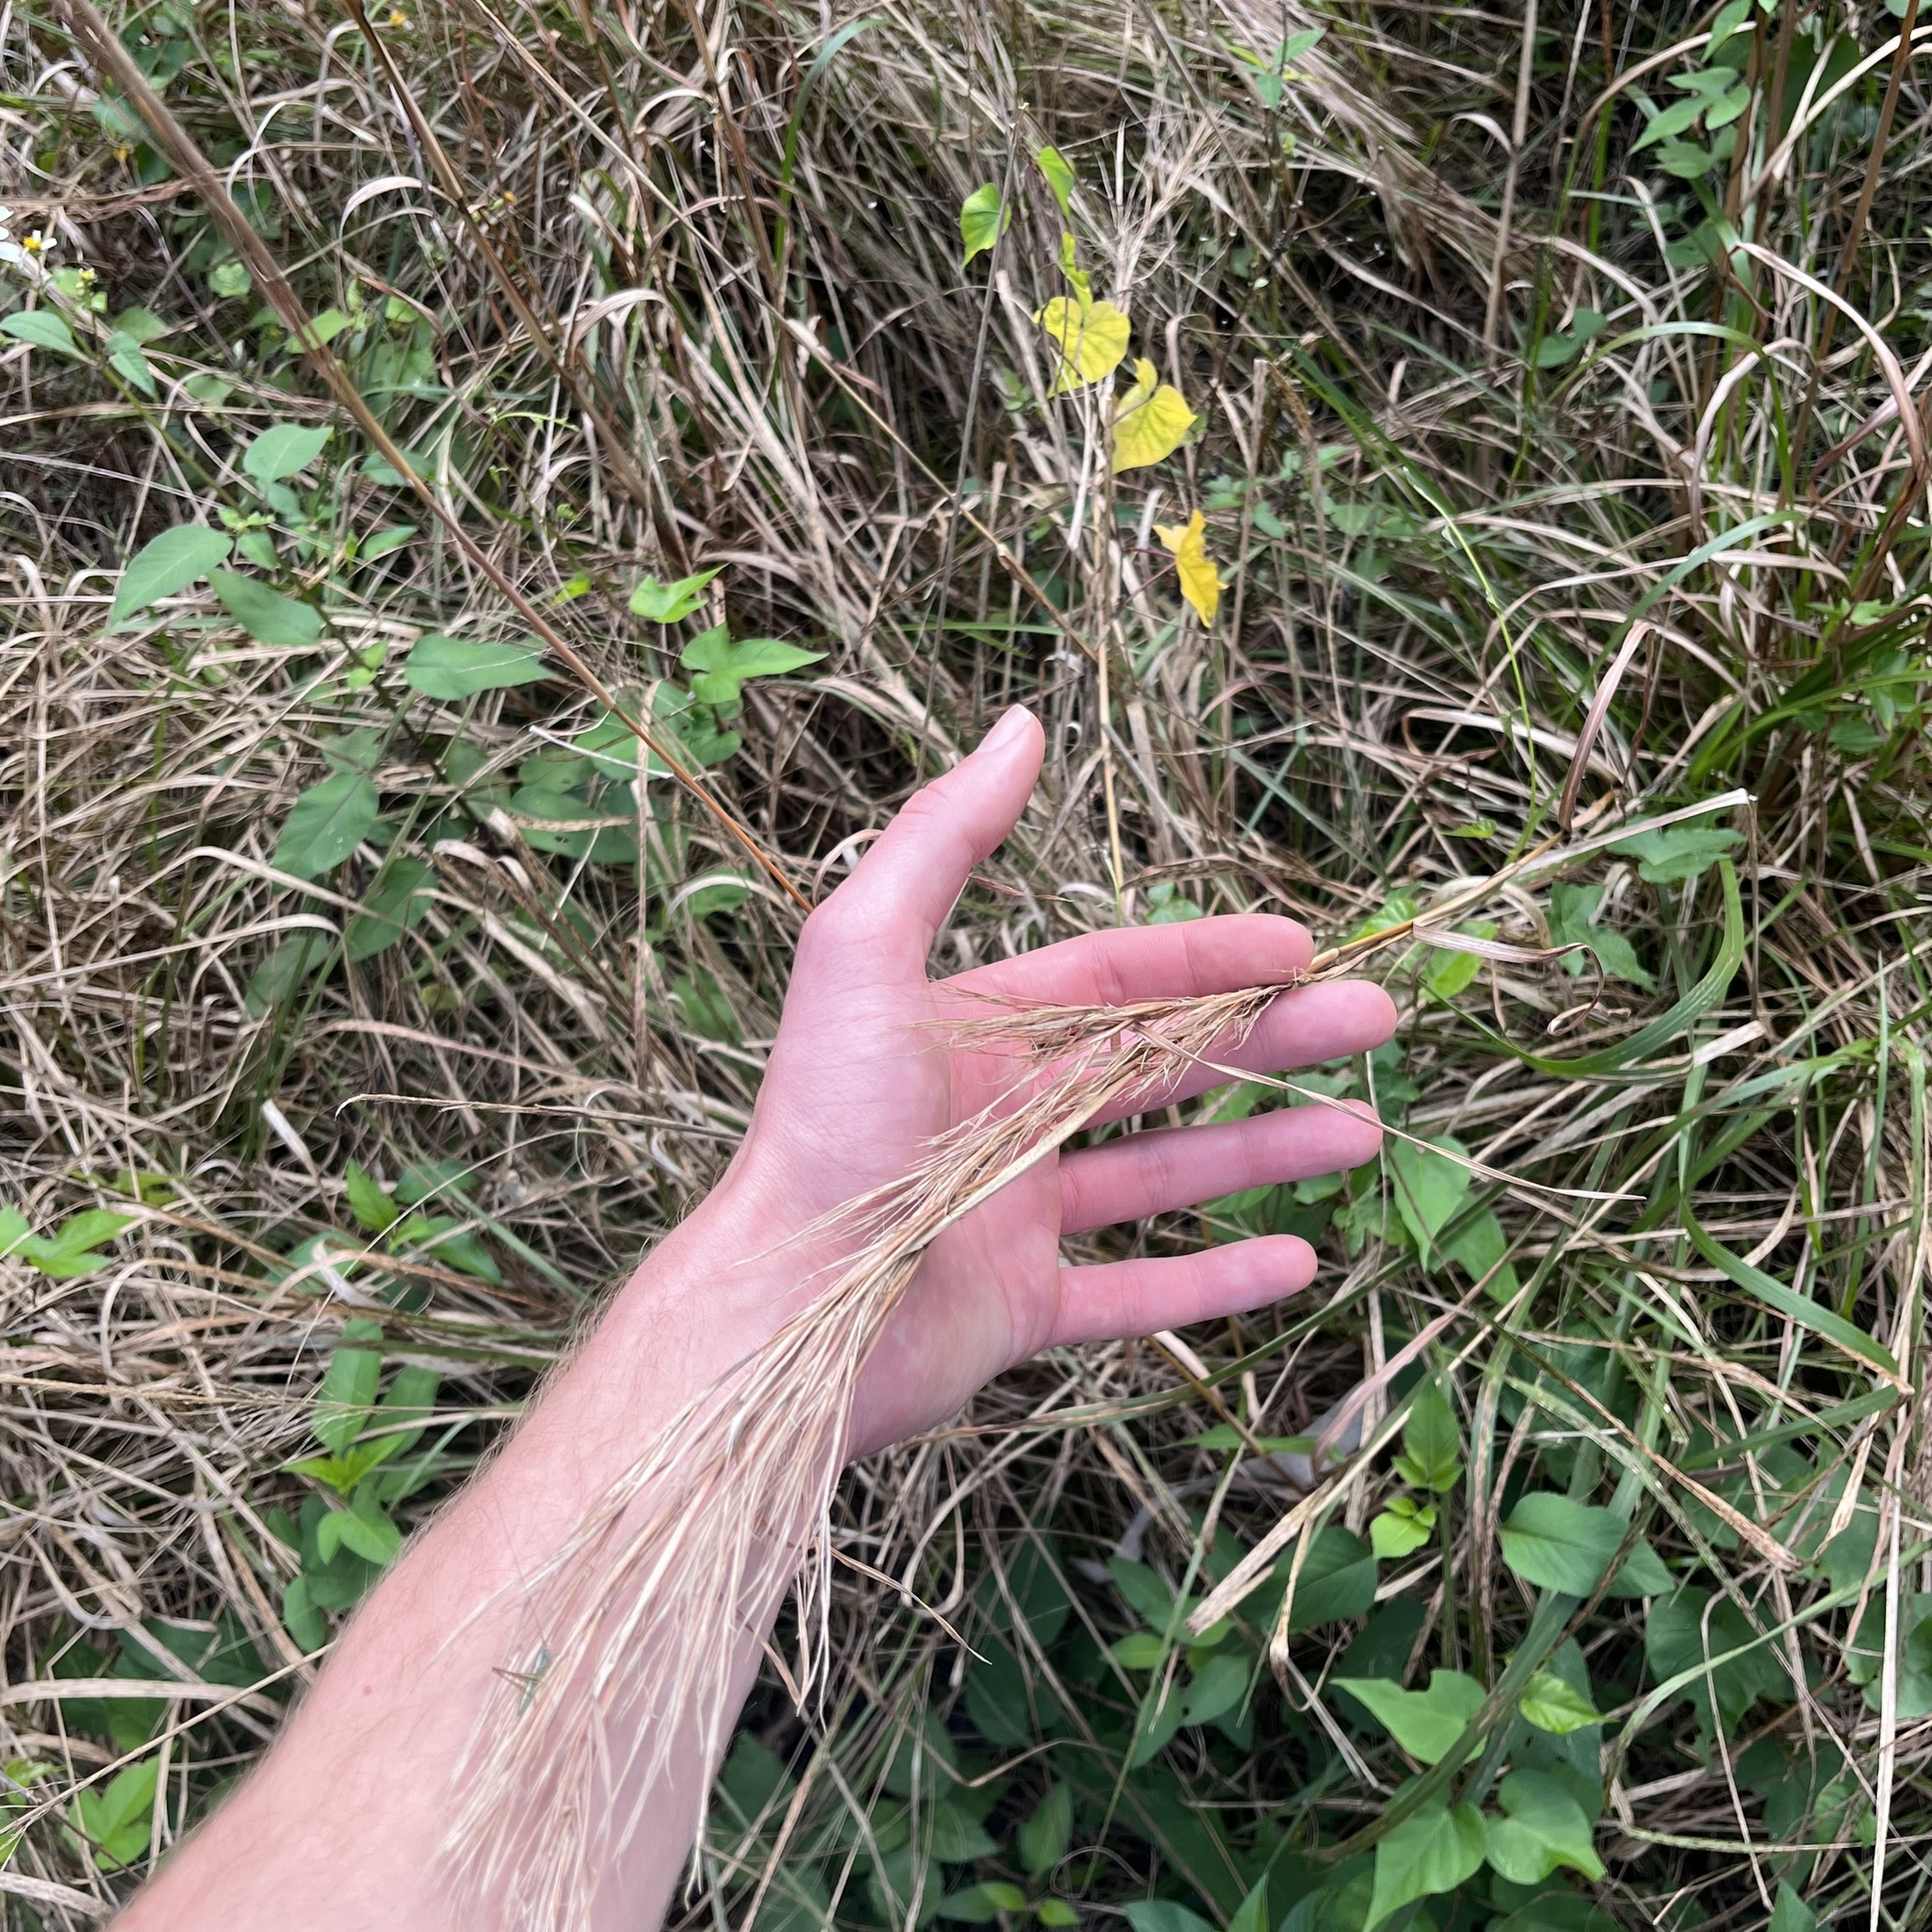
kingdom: Animalia
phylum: Arthropoda
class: Insecta
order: Orthoptera
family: Tettigoniidae
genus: Conocephalus
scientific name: Conocephalus gracillimus
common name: Graceful meadow katydid
